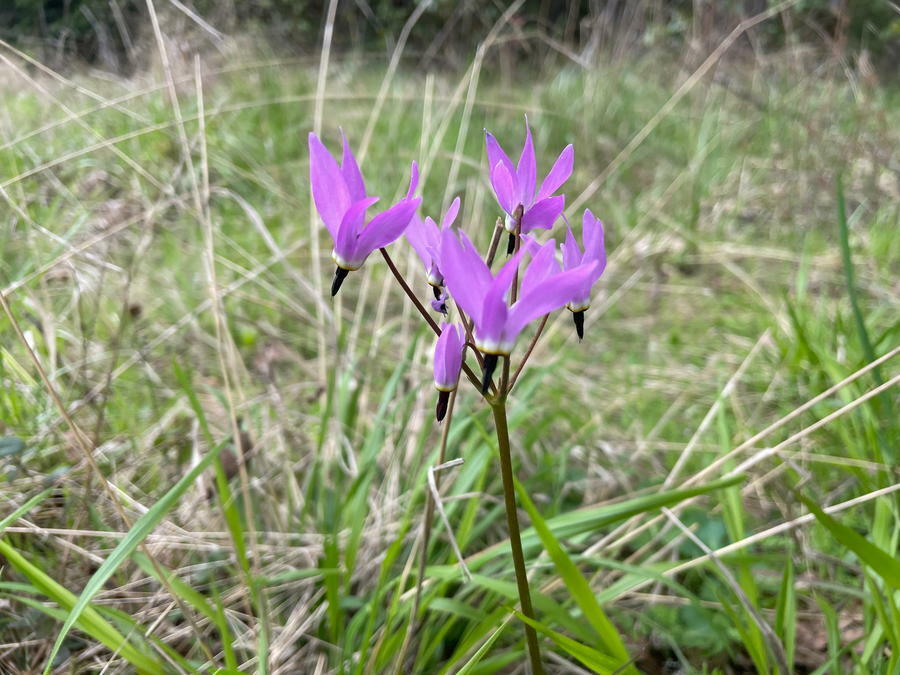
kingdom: Plantae
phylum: Tracheophyta
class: Magnoliopsida
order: Ericales
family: Primulaceae
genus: Dodecatheon
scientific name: Dodecatheon hendersonii
